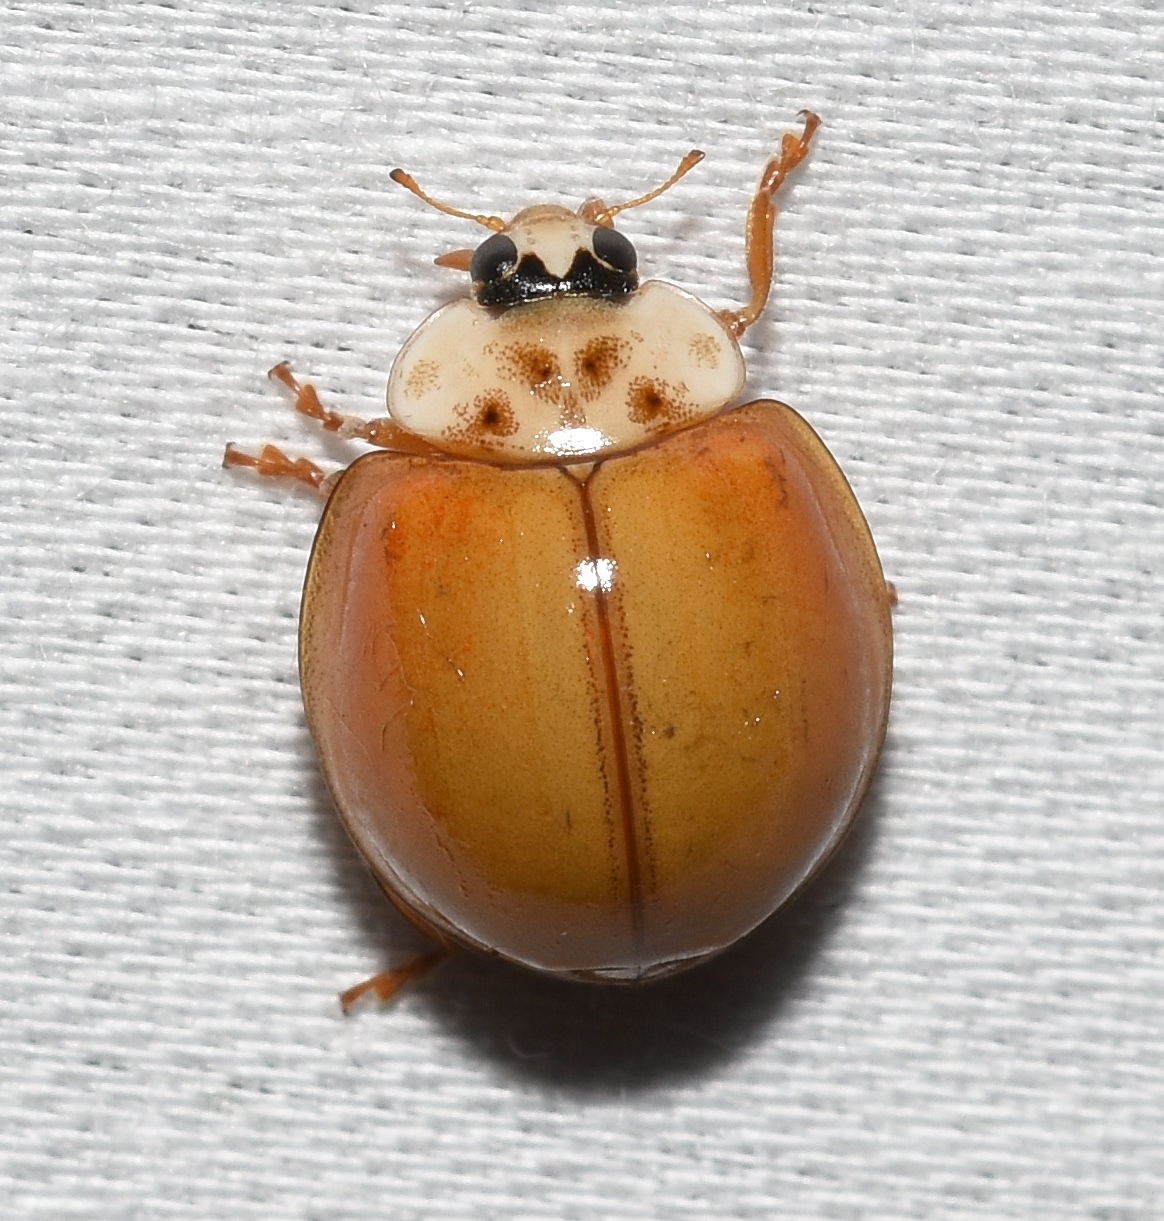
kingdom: Animalia
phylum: Arthropoda
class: Insecta
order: Coleoptera
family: Coccinellidae
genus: Harmonia
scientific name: Harmonia axyridis
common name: Harlequin ladybird
